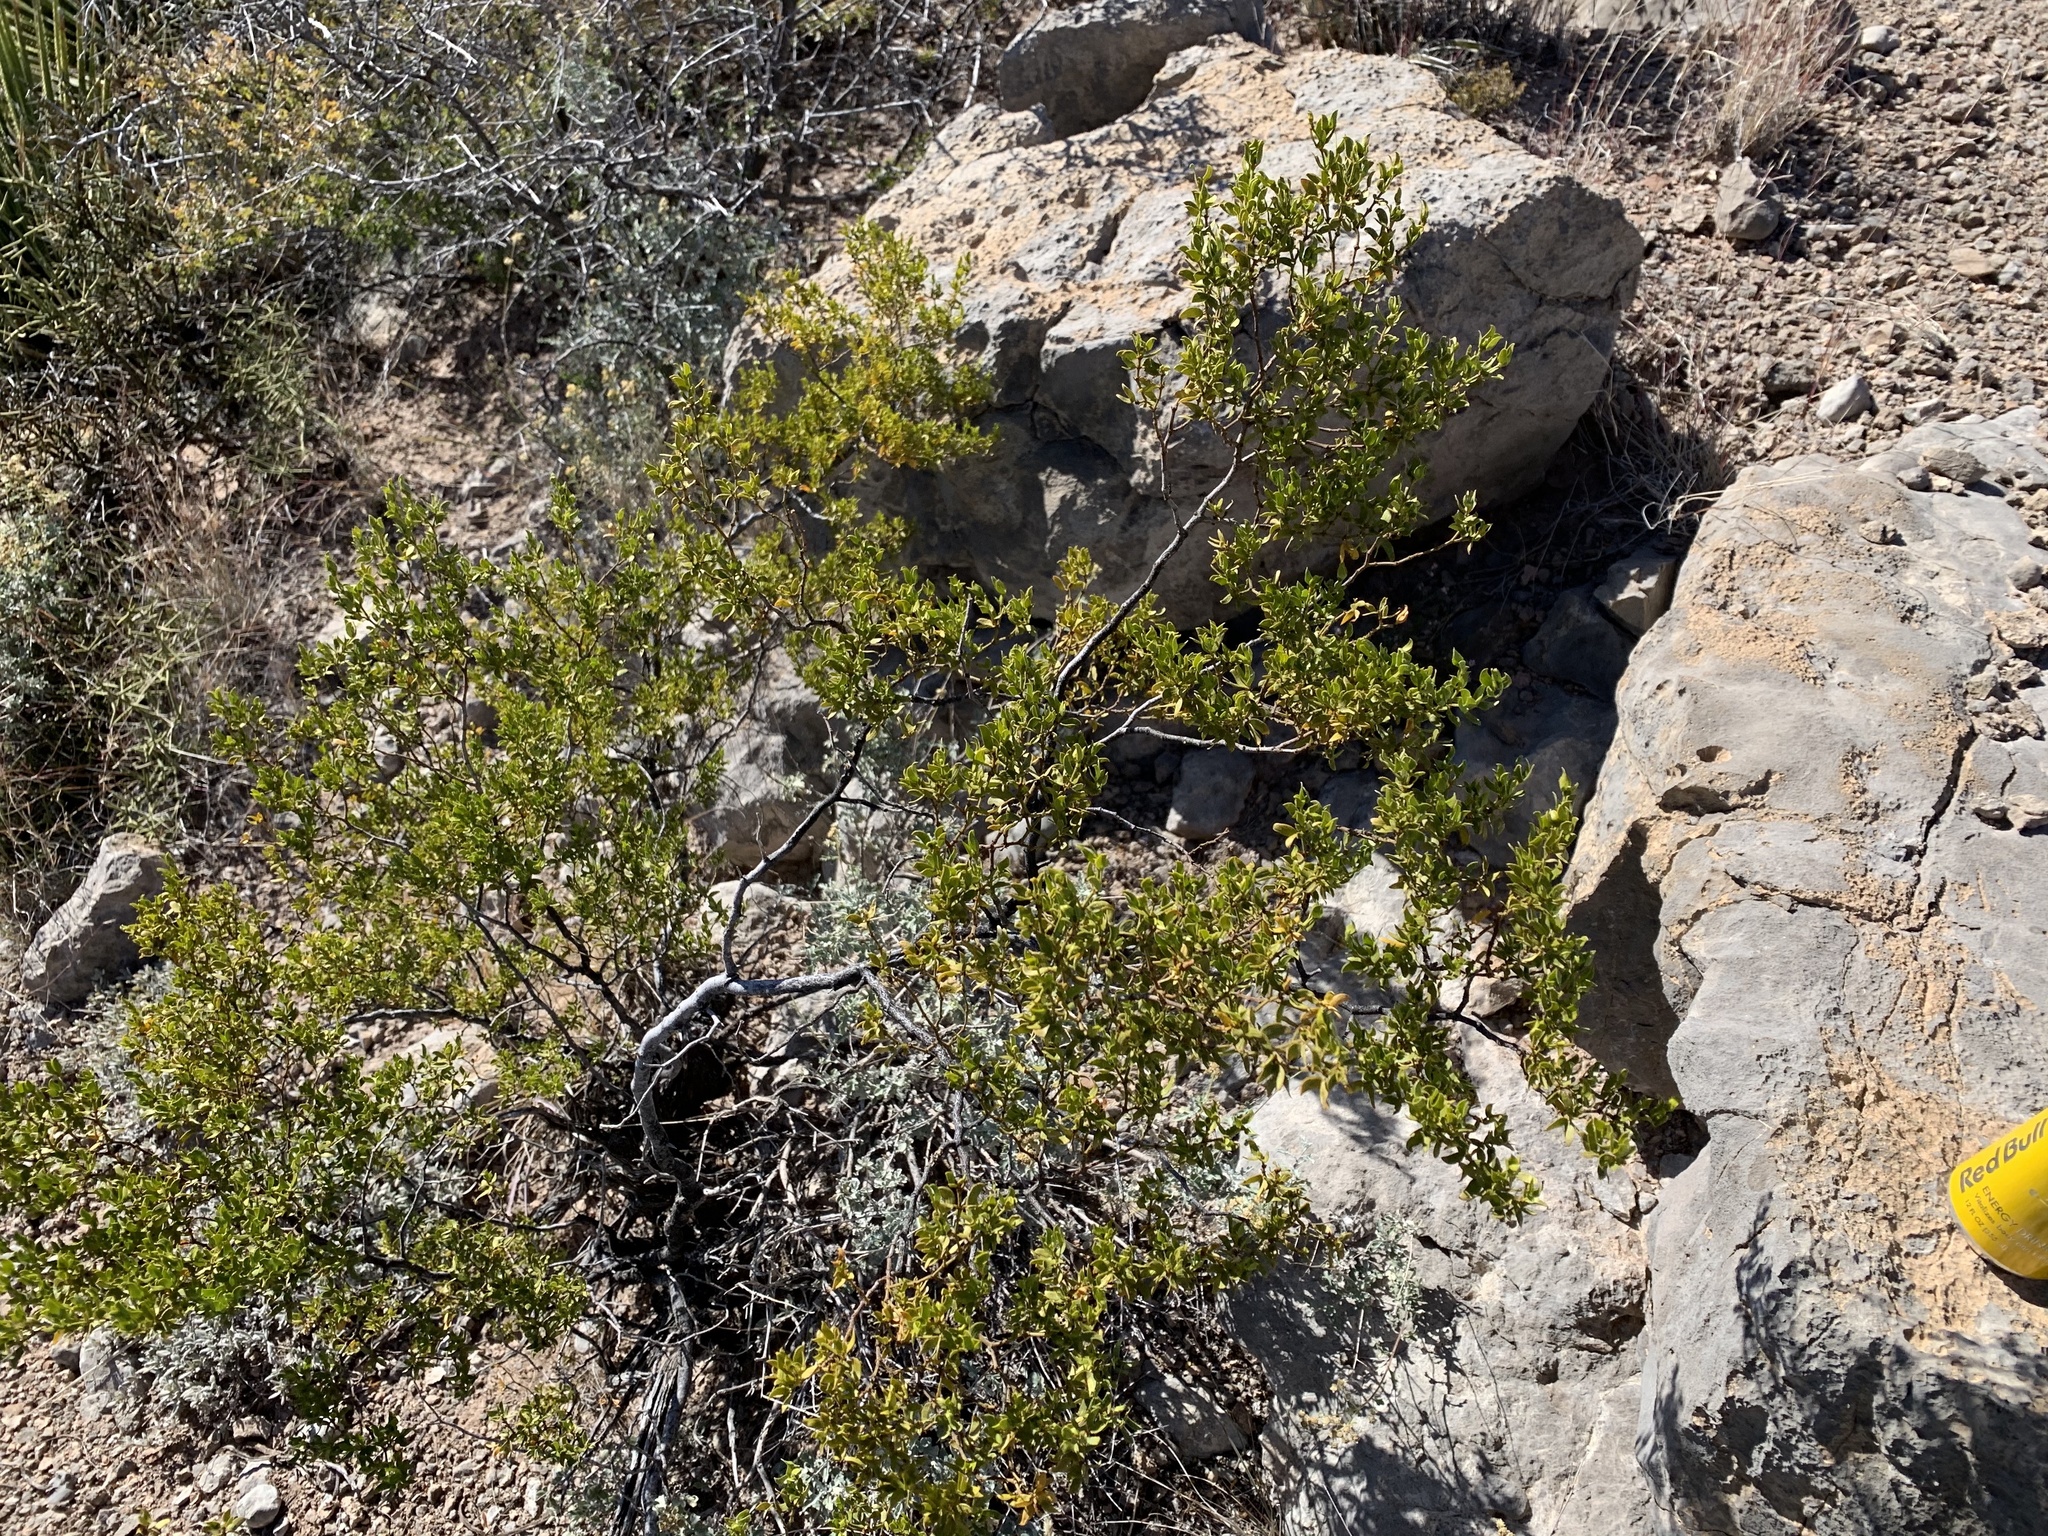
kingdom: Plantae
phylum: Tracheophyta
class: Magnoliopsida
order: Zygophyllales
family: Zygophyllaceae
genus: Larrea
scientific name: Larrea tridentata
